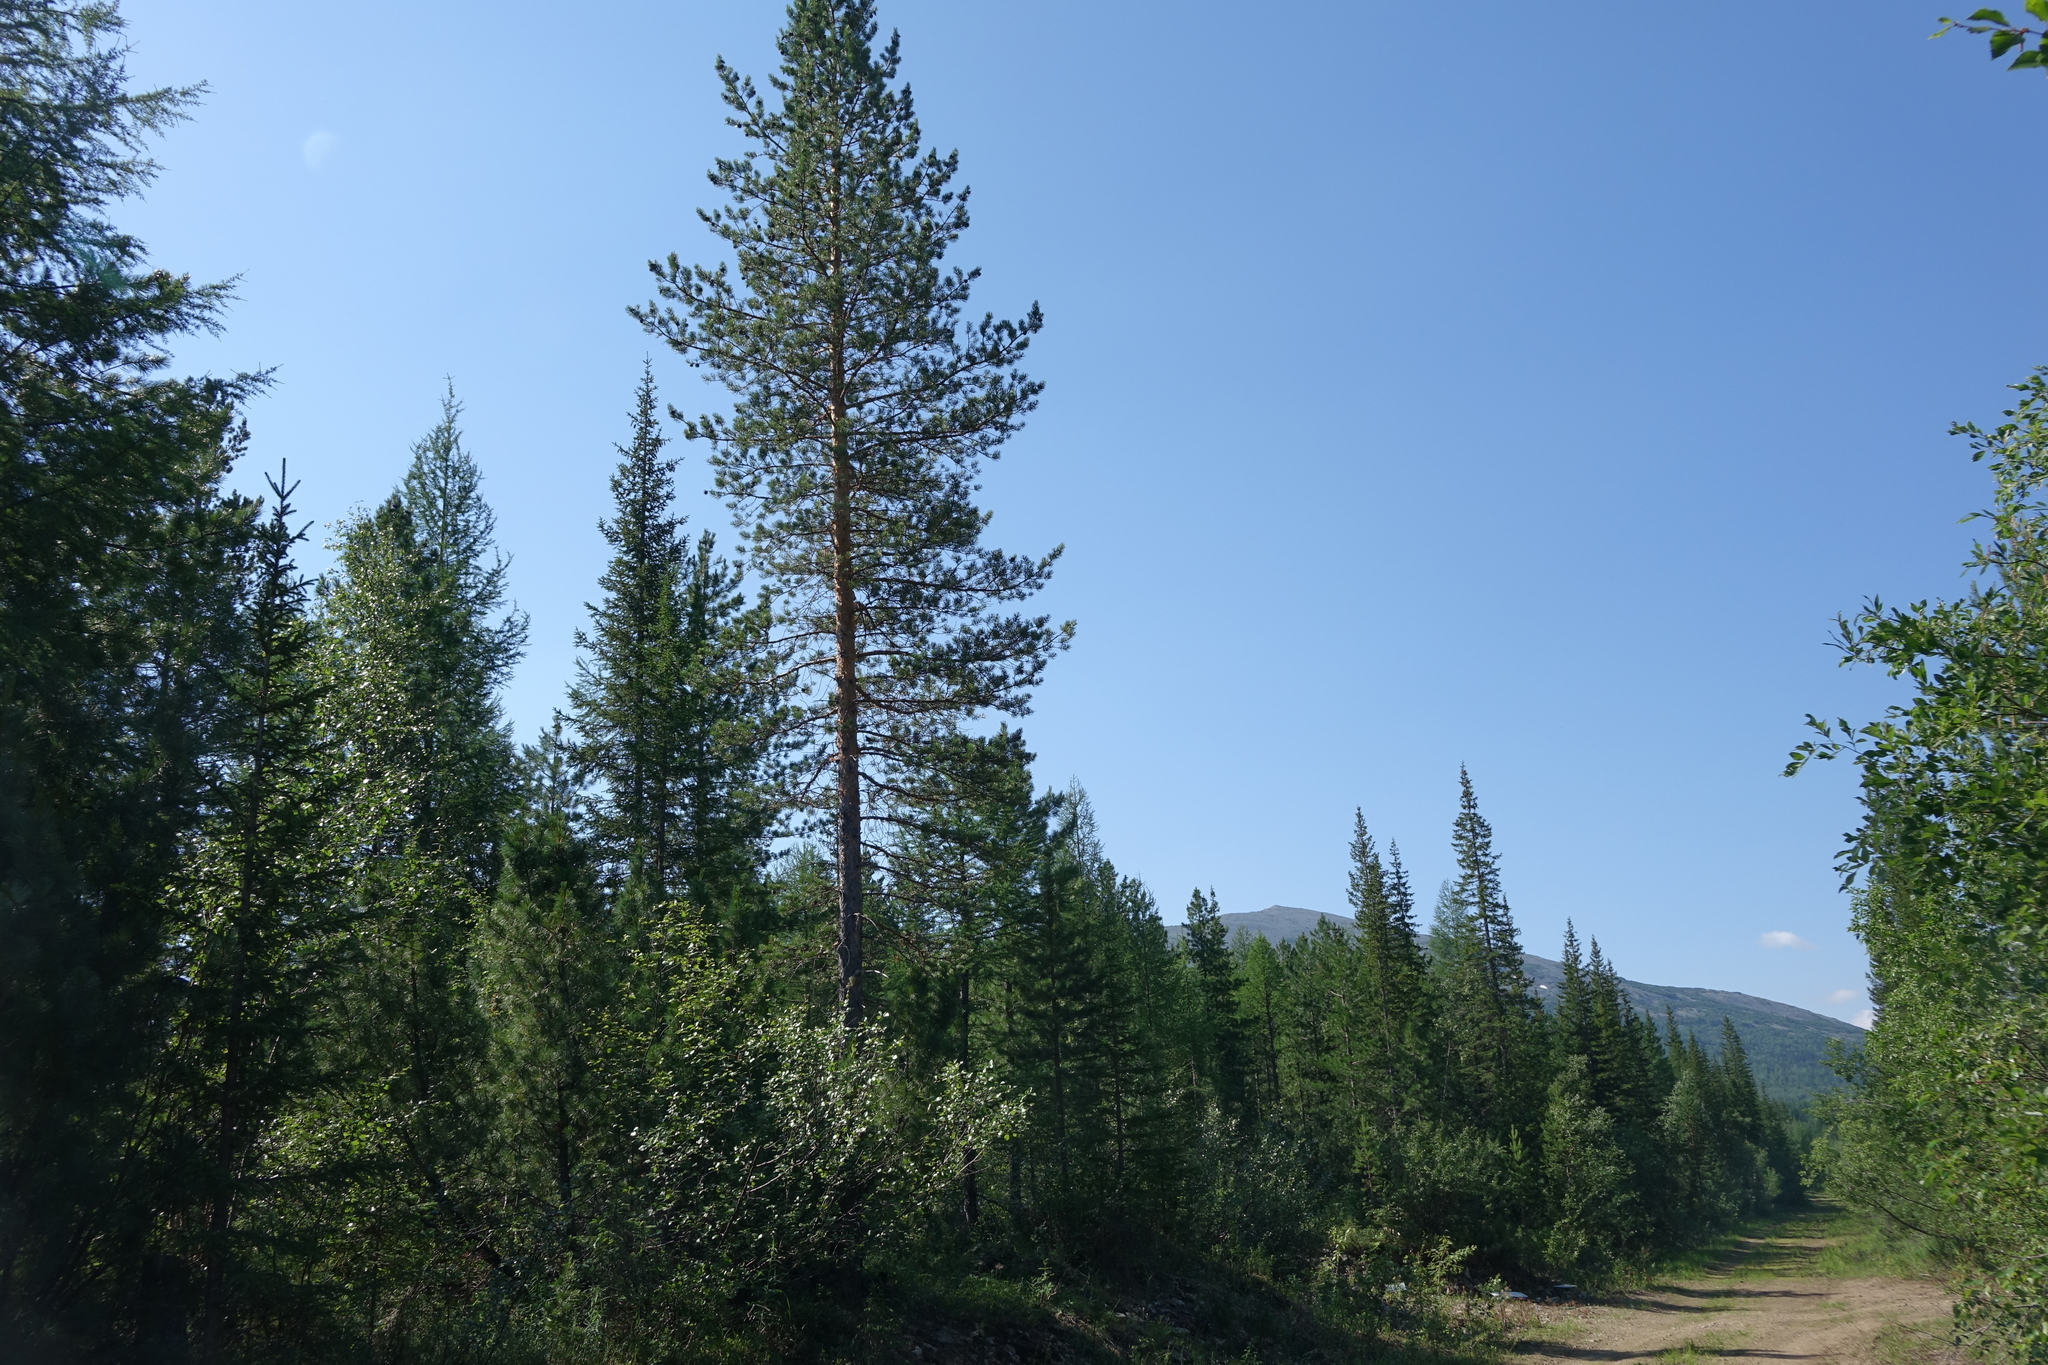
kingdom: Plantae
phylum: Tracheophyta
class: Pinopsida
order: Pinales
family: Pinaceae
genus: Pinus
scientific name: Pinus sylvestris
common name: Scots pine
